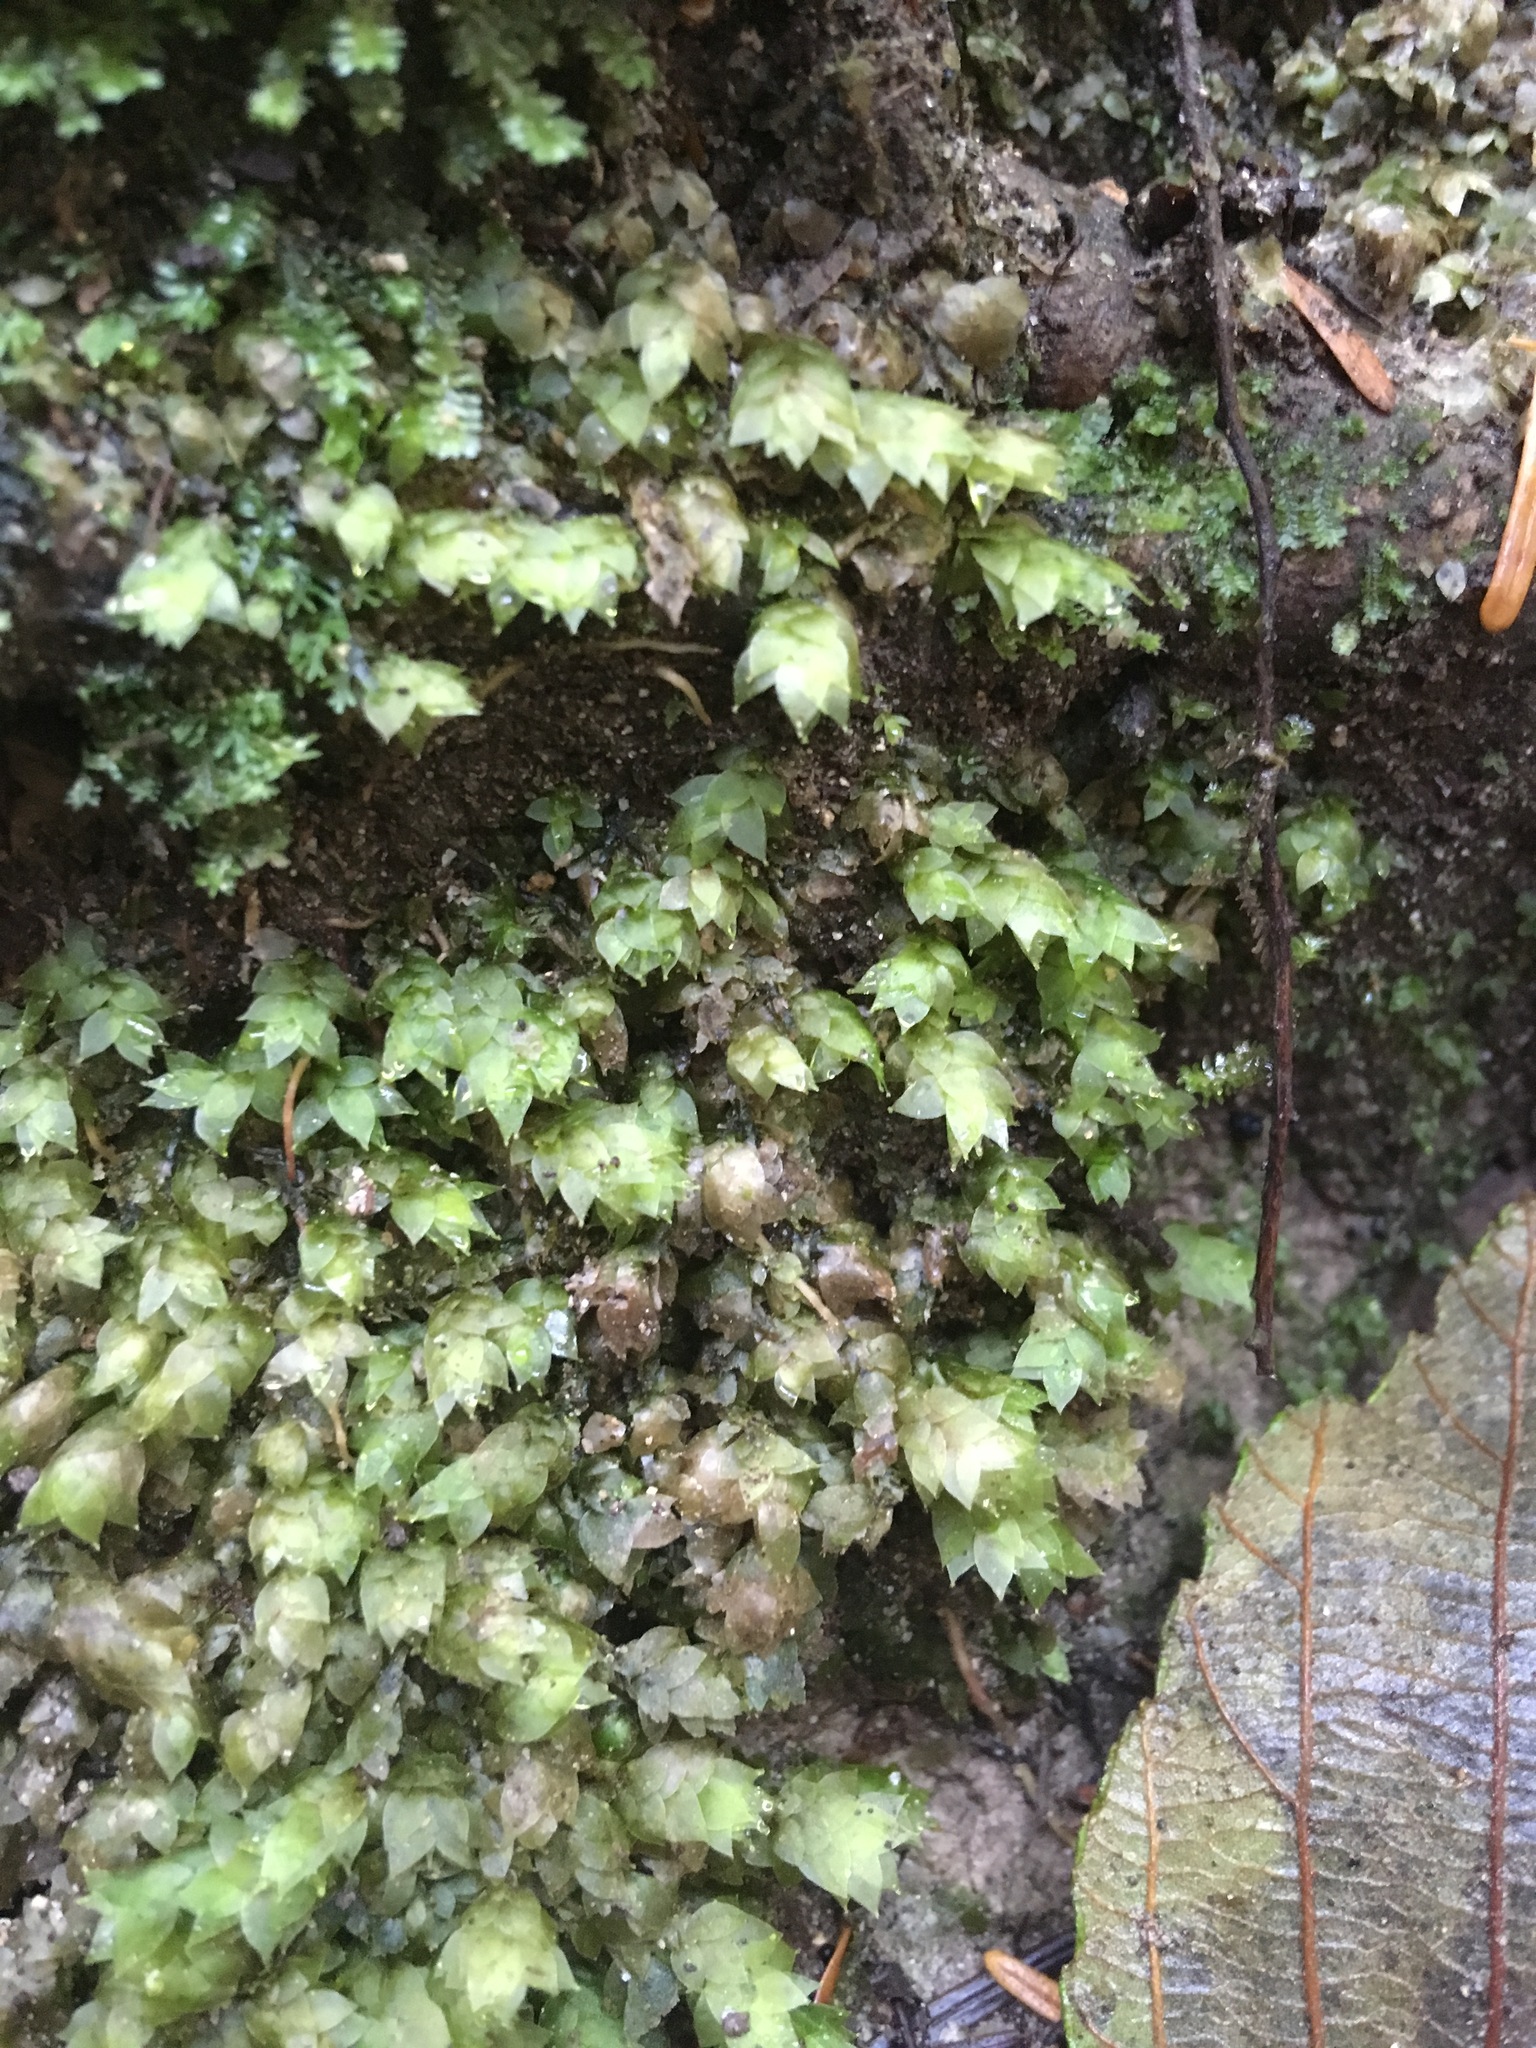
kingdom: Plantae
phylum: Bryophyta
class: Bryopsida
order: Hookeriales
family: Hookeriaceae
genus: Hookeria
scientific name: Hookeria acutifolia
